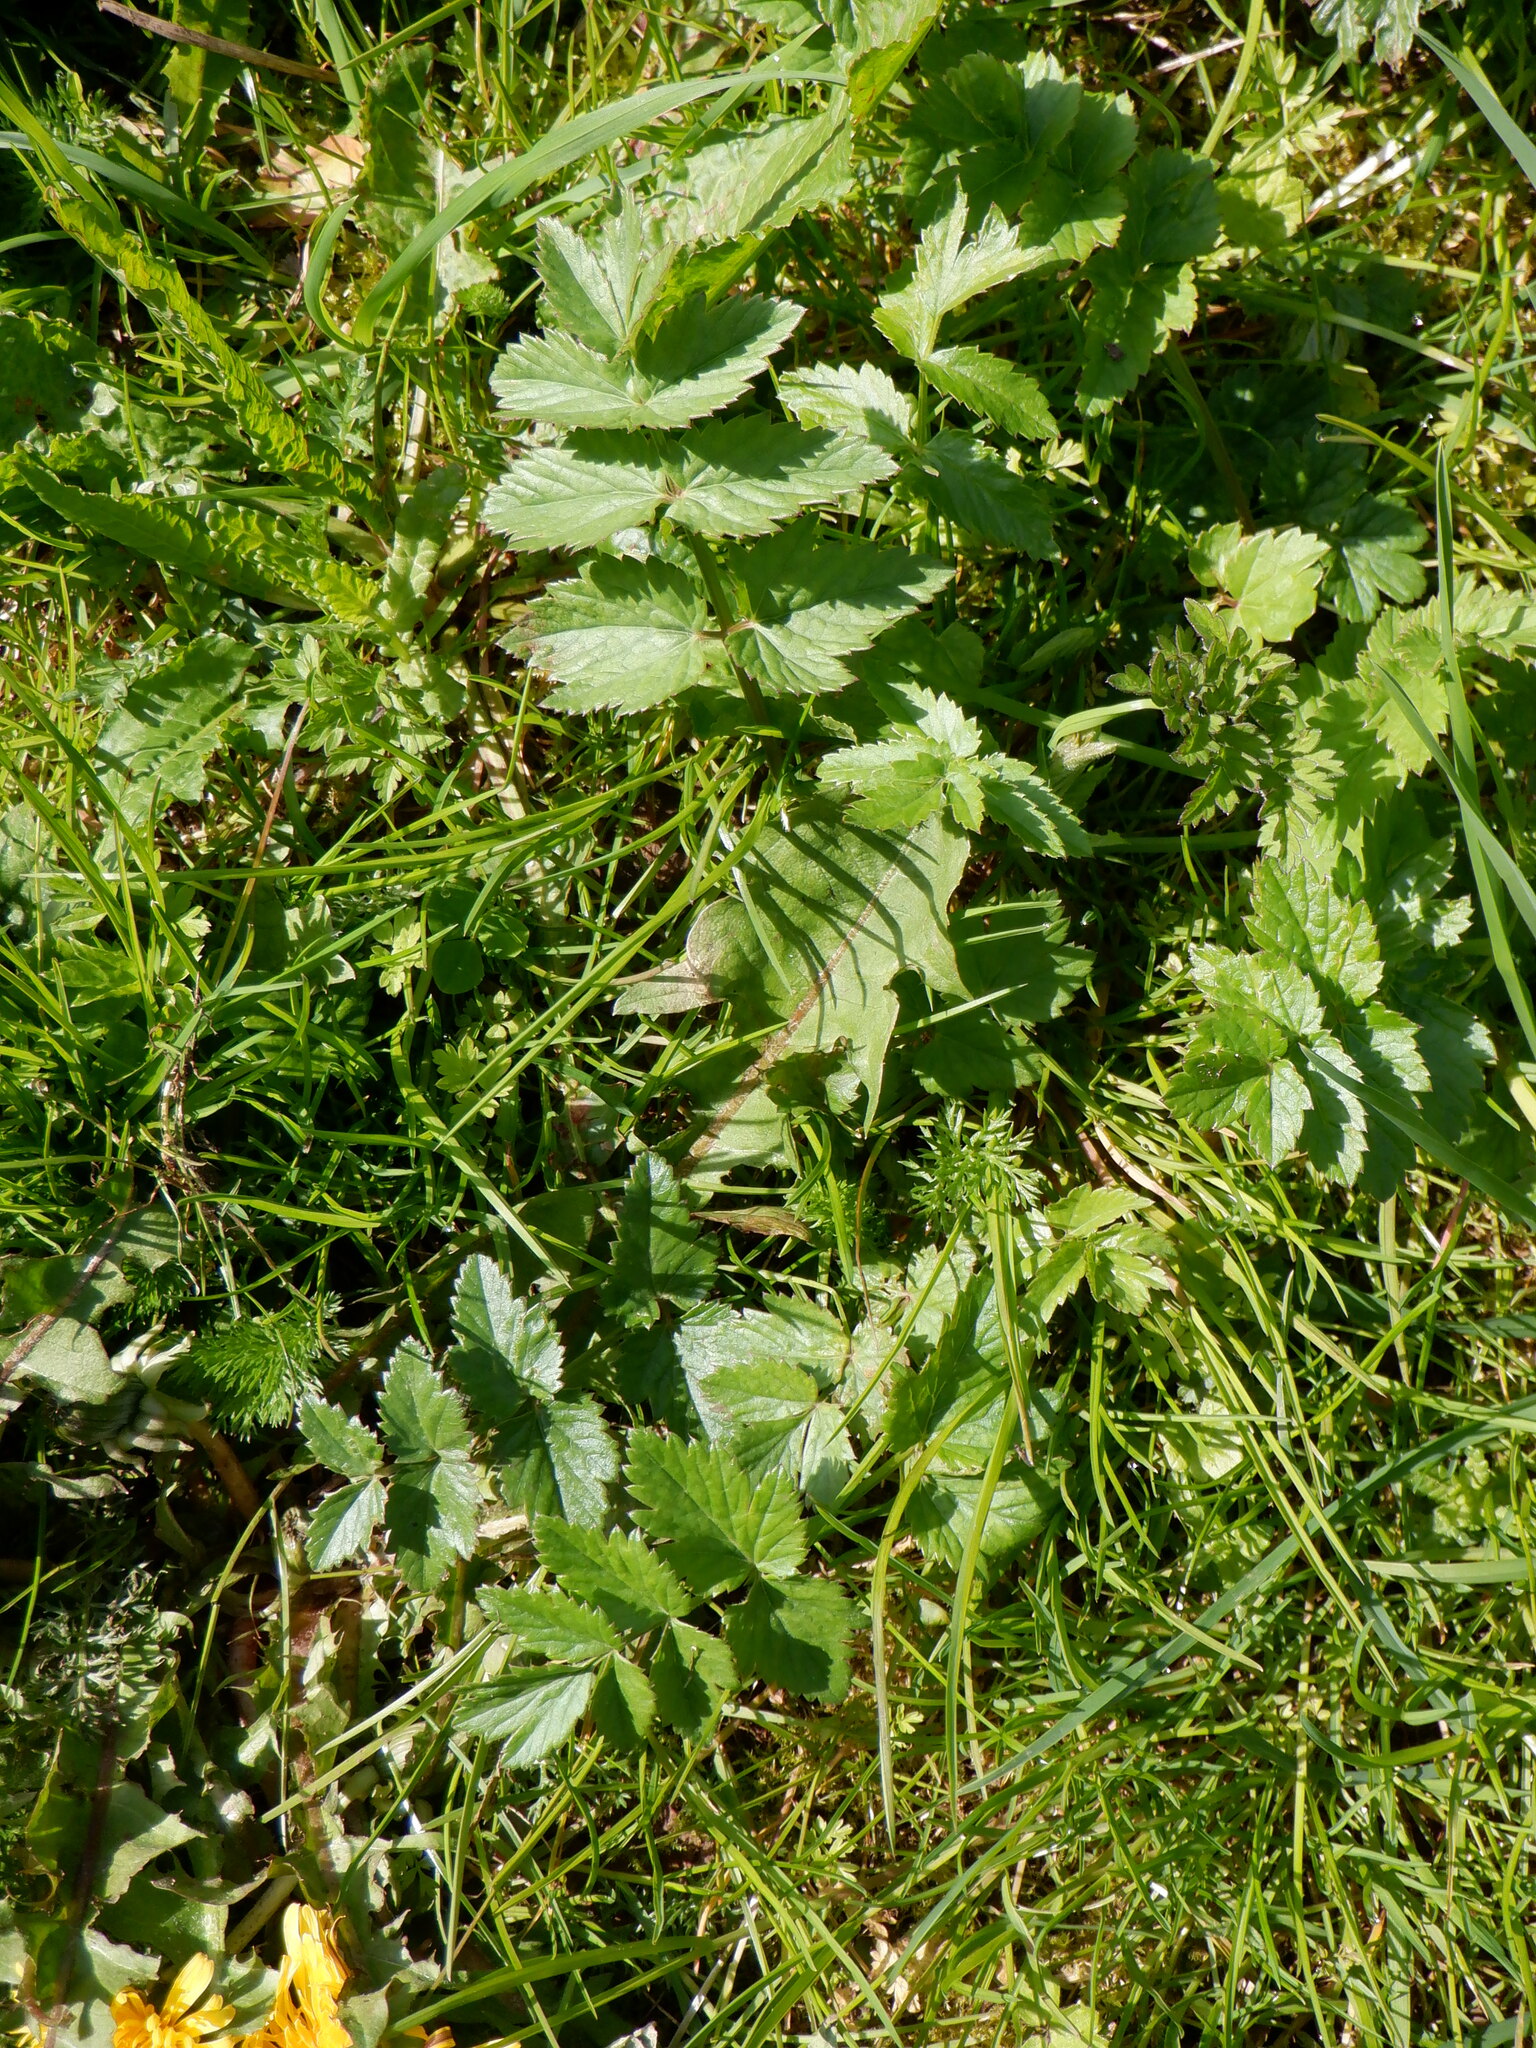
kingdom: Plantae
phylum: Tracheophyta
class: Magnoliopsida
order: Apiales
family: Apiaceae
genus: Pastinaca
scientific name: Pastinaca sativa
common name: Wild parsnip
